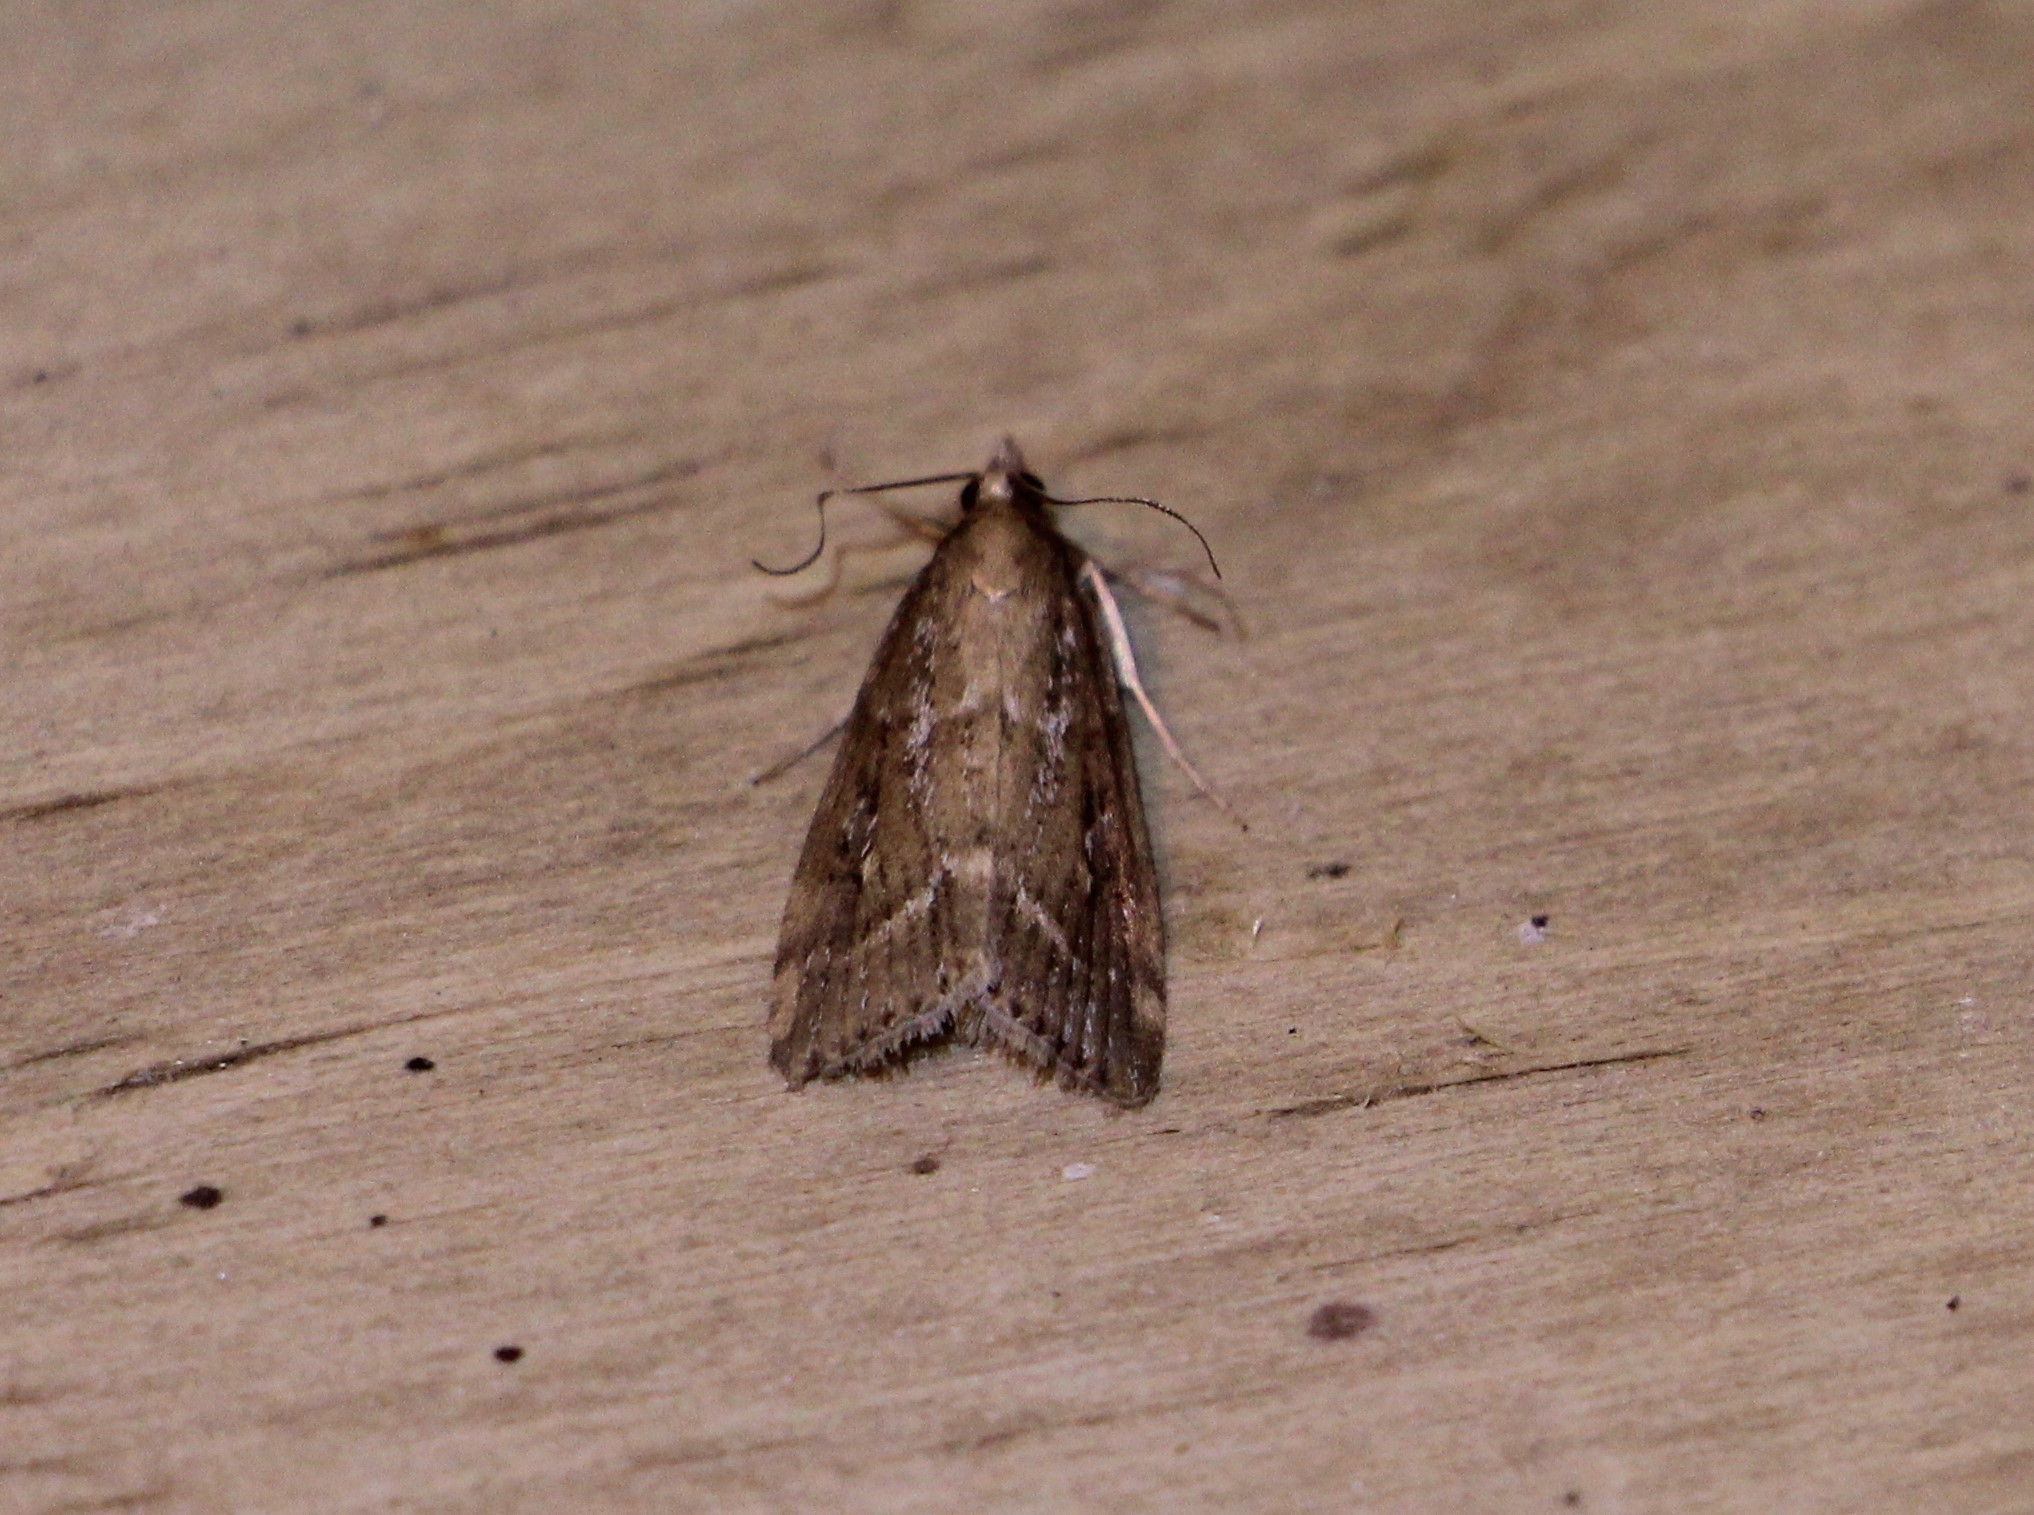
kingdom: Animalia
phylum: Arthropoda
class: Insecta
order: Lepidoptera
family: Crambidae
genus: Eudonia
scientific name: Eudonia octophora
